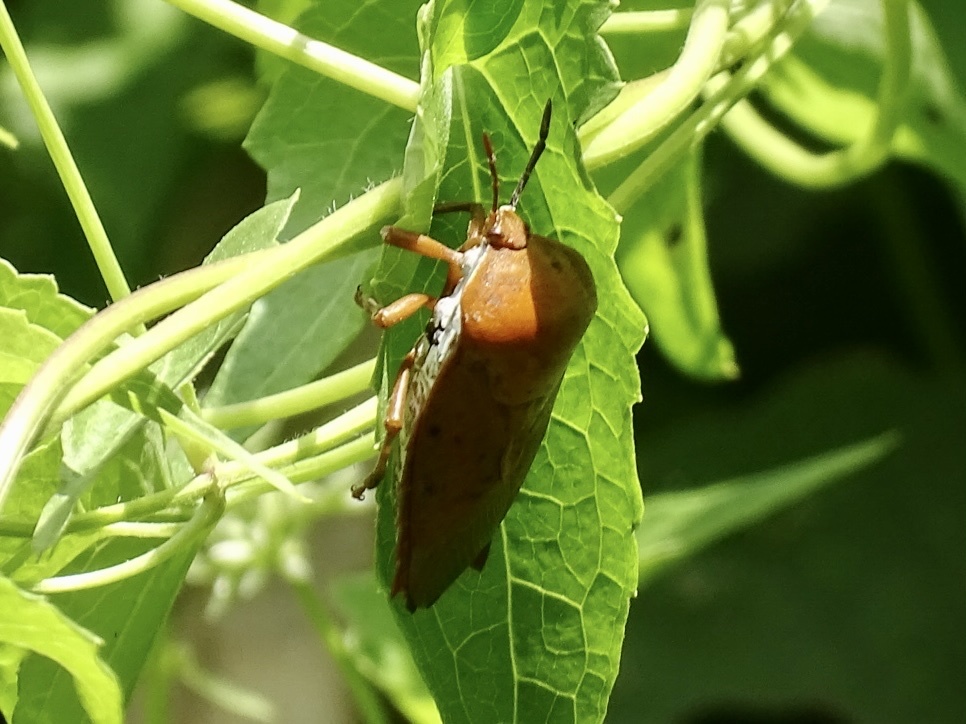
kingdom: Animalia
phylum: Arthropoda
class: Insecta
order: Hemiptera
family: Tessaratomidae
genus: Tessaratoma
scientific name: Tessaratoma papillosa
